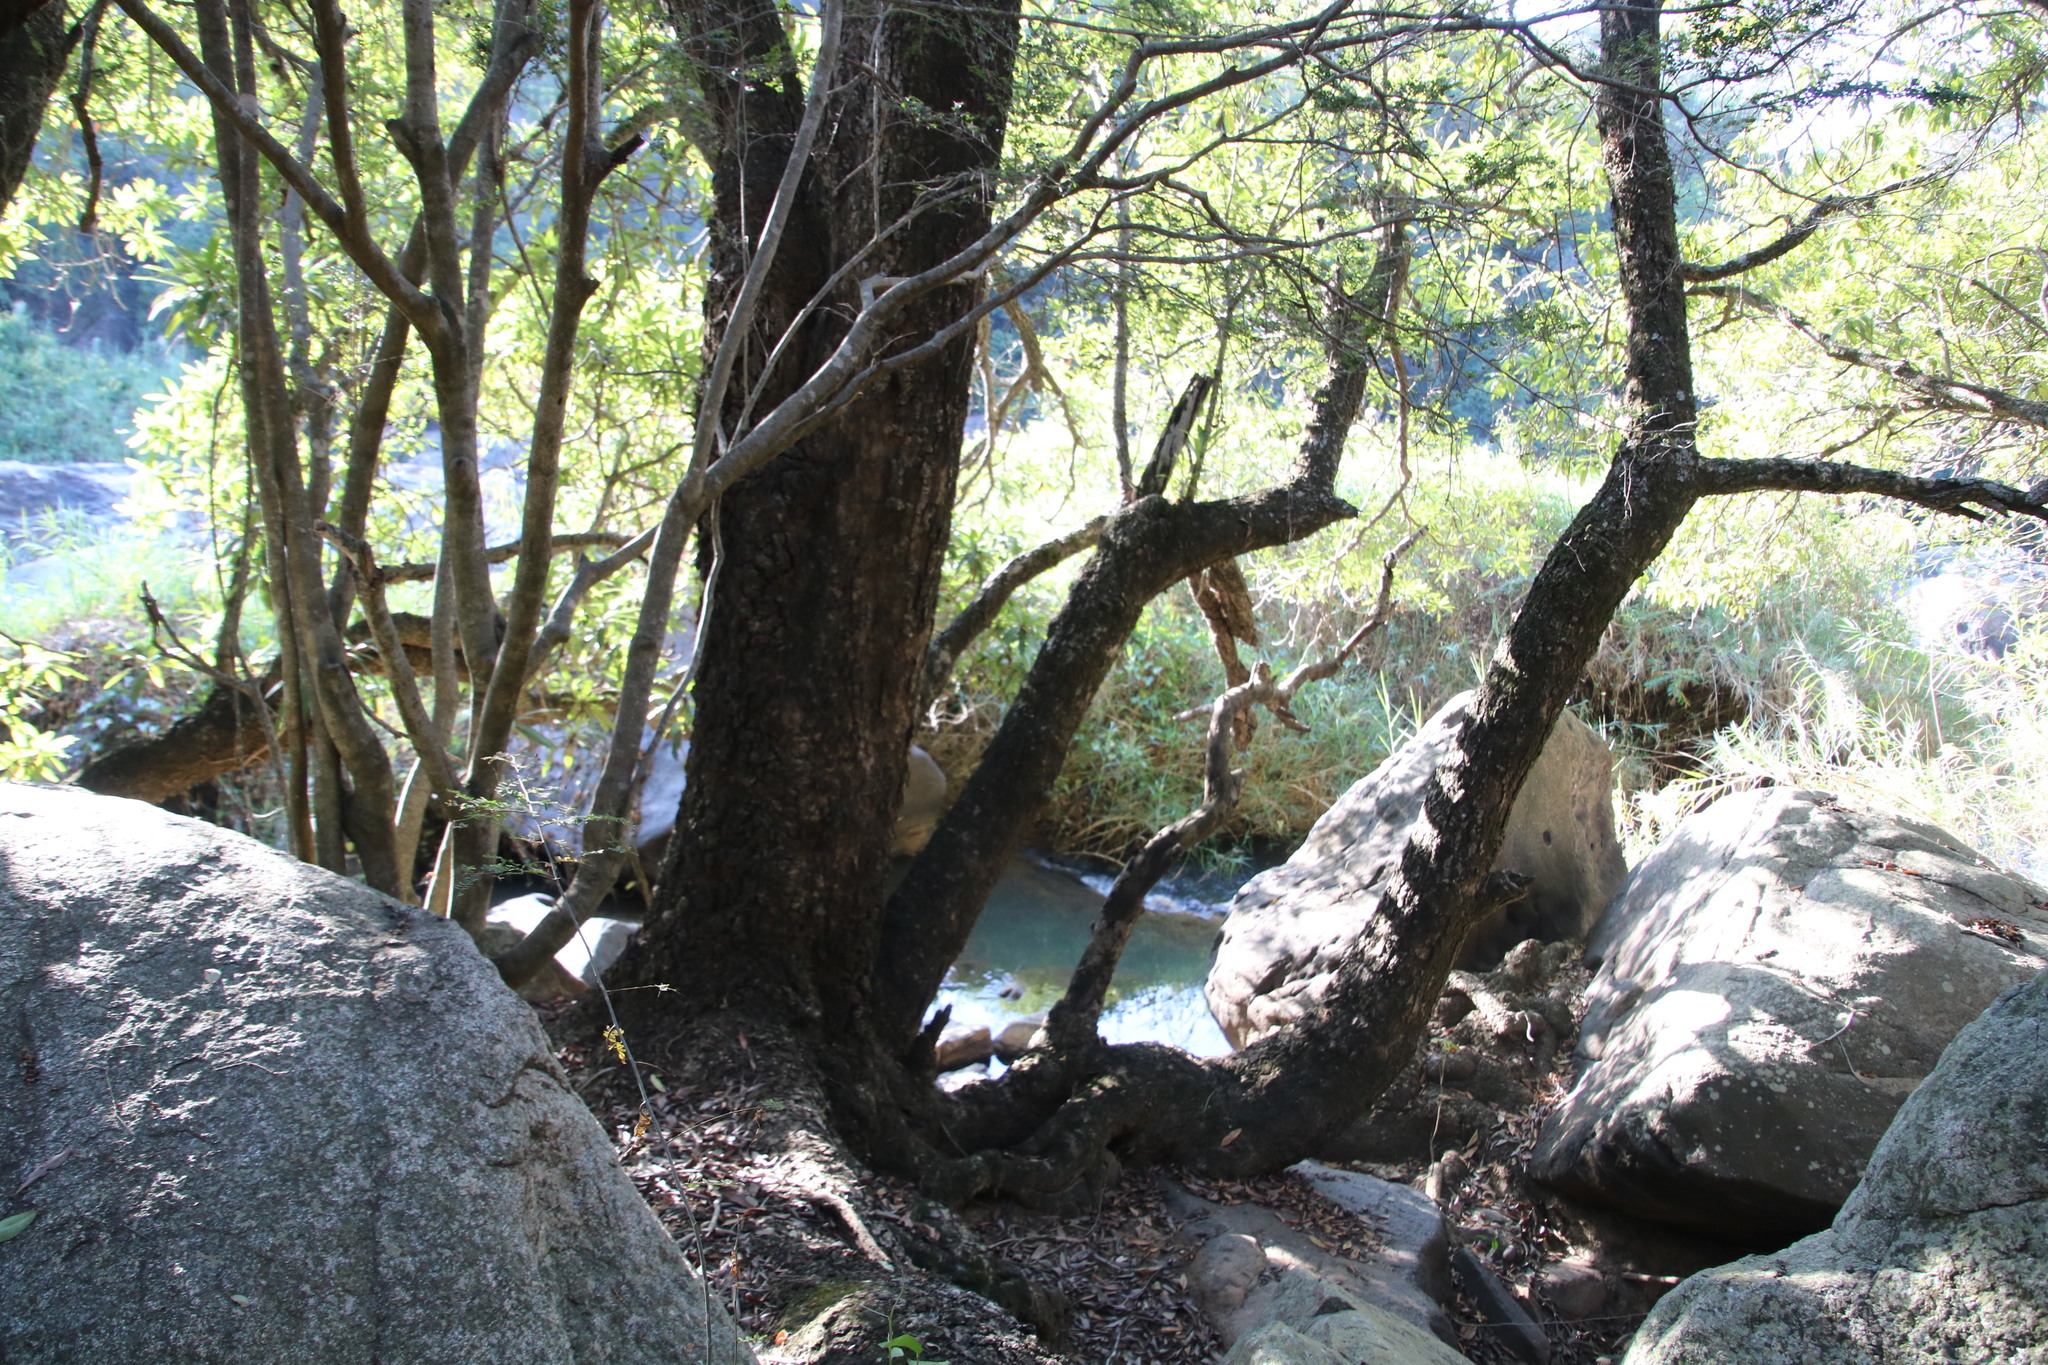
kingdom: Plantae
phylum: Tracheophyta
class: Magnoliopsida
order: Gentianales
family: Rubiaceae
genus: Breonadia
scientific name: Breonadia salicina
